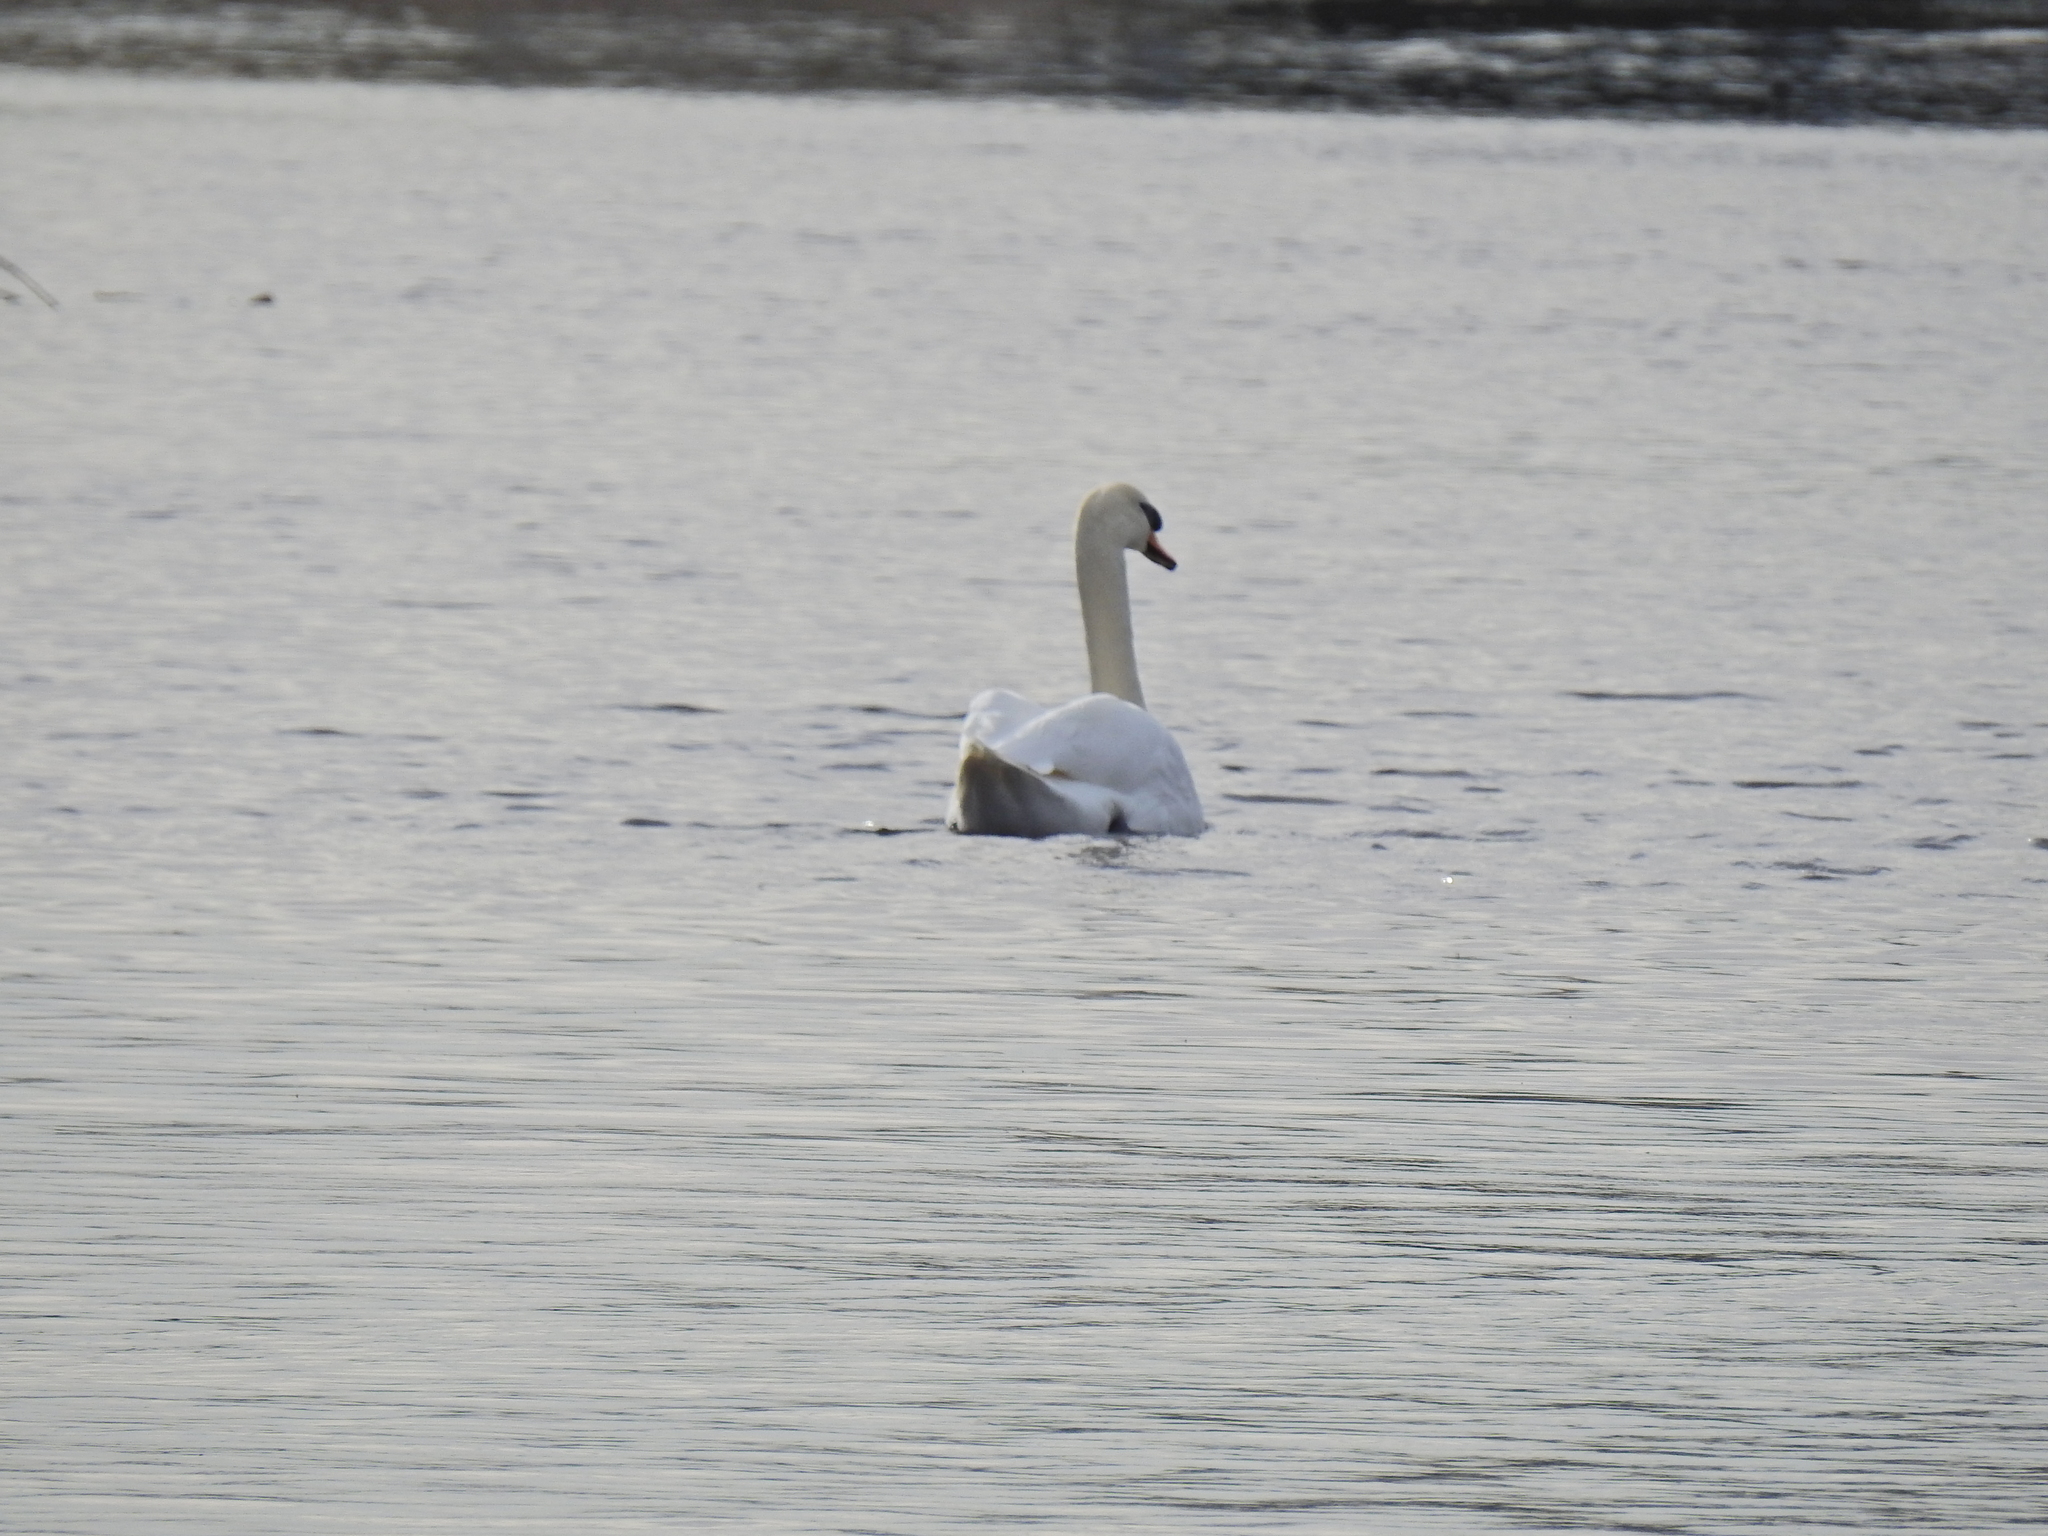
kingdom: Animalia
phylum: Chordata
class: Aves
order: Anseriformes
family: Anatidae
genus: Cygnus
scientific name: Cygnus olor
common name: Mute swan
